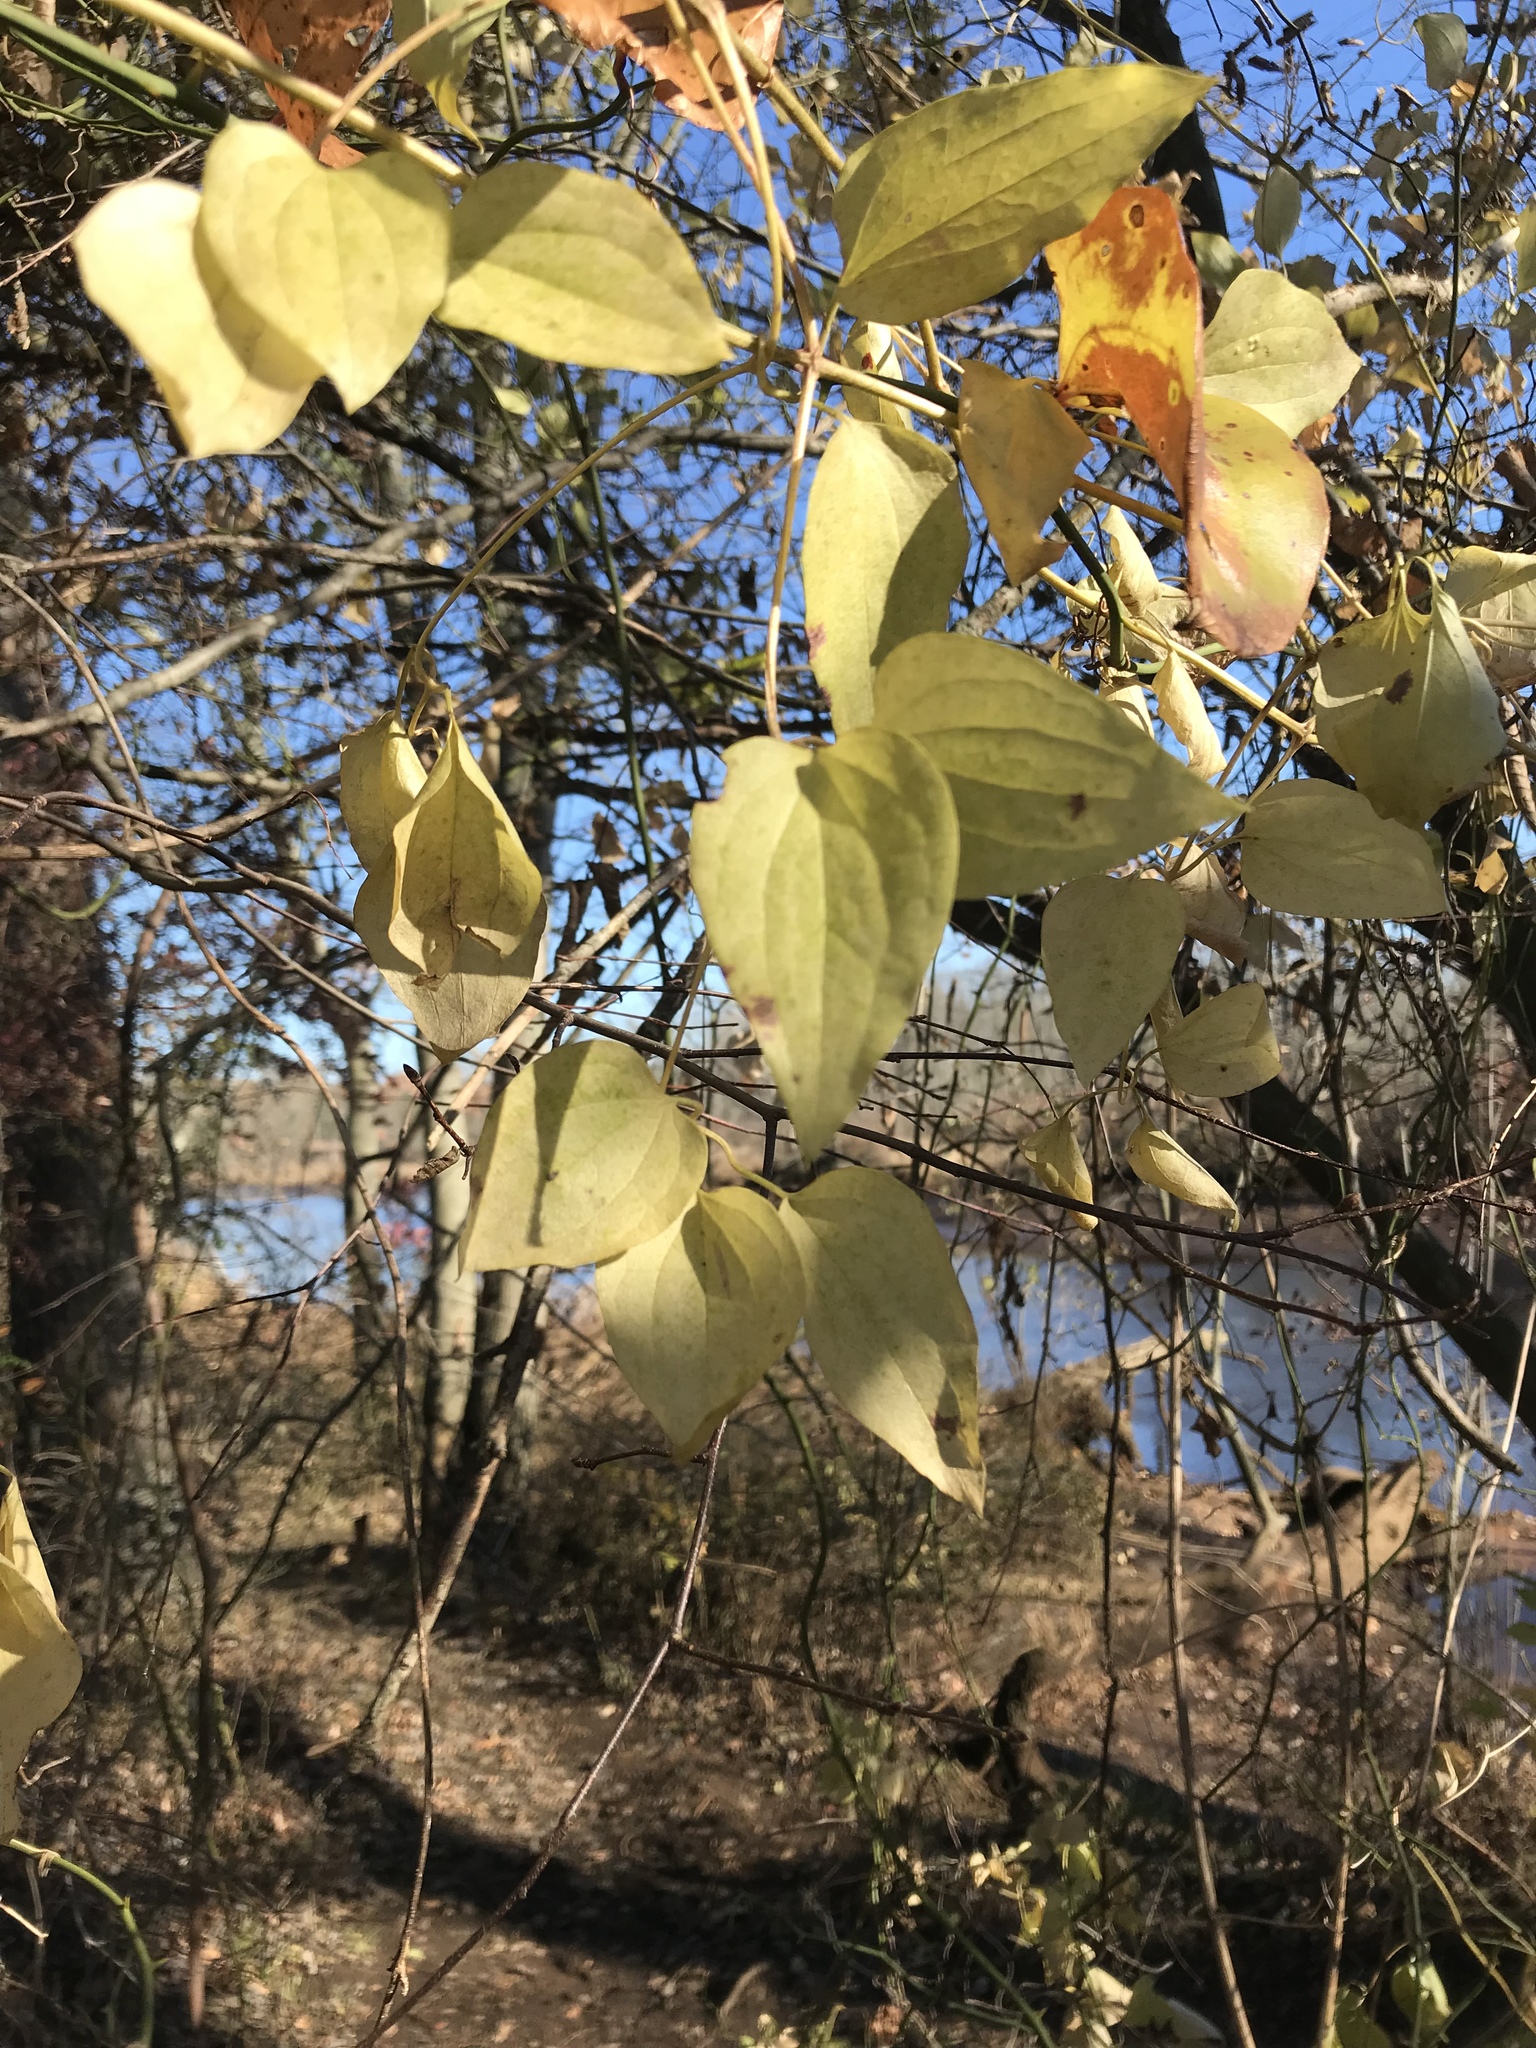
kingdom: Plantae
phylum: Tracheophyta
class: Magnoliopsida
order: Ranunculales
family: Ranunculaceae
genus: Clematis
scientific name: Clematis terniflora
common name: Sweet autumn clematis
